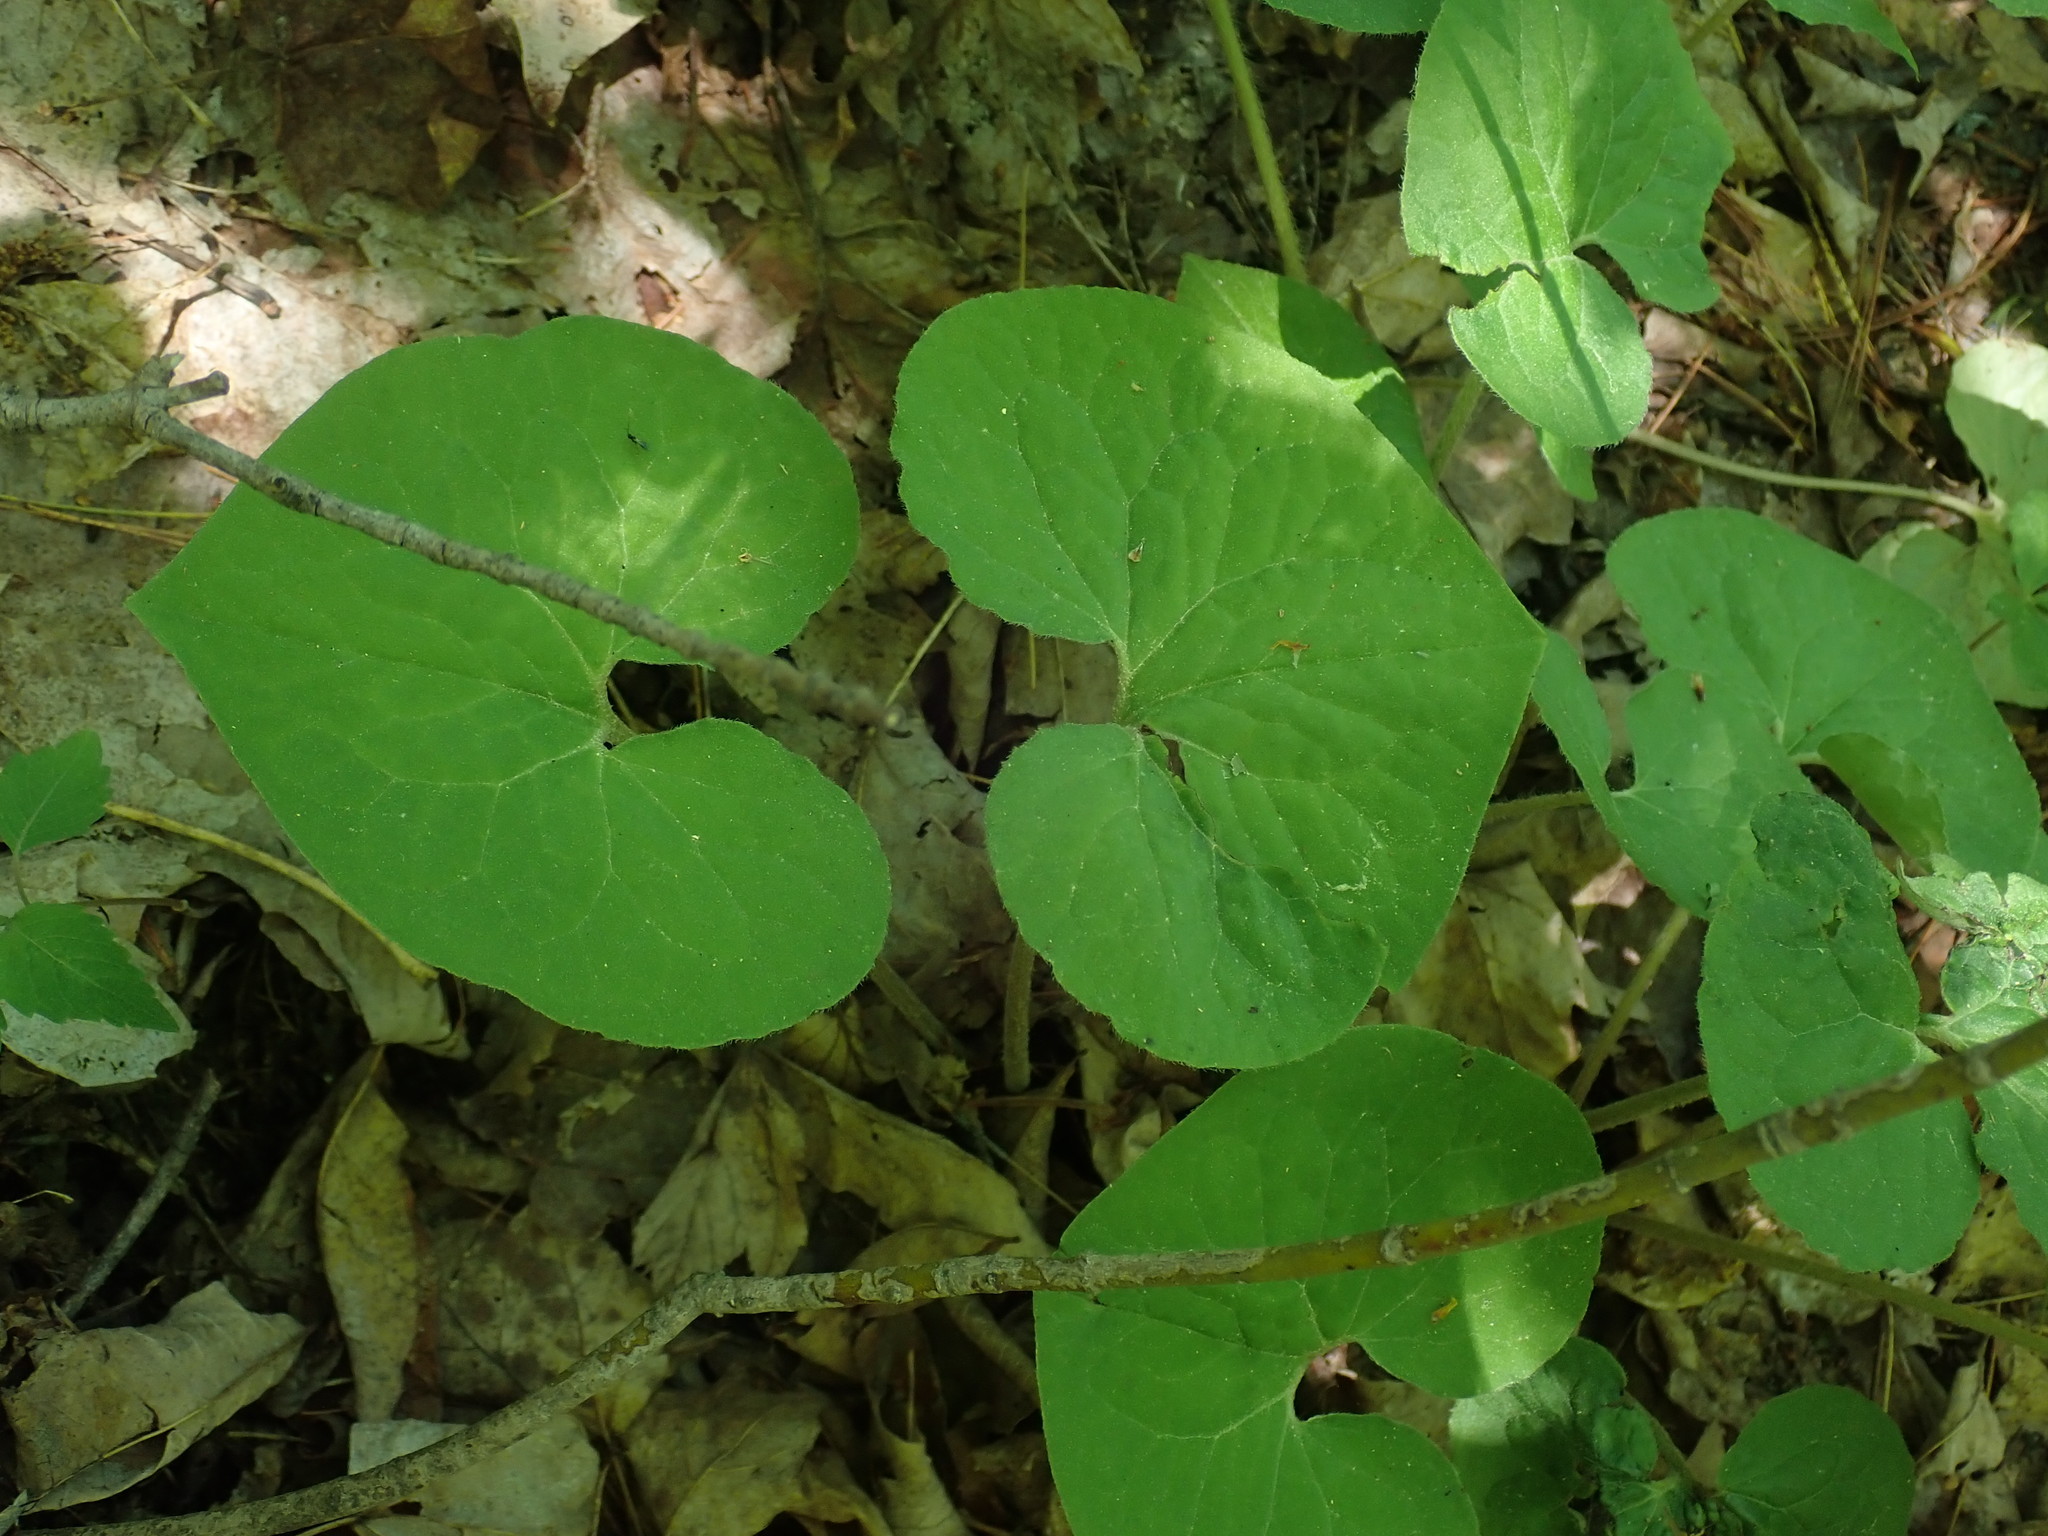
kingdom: Plantae
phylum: Tracheophyta
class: Magnoliopsida
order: Piperales
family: Aristolochiaceae
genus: Asarum
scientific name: Asarum canadense
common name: Wild ginger
